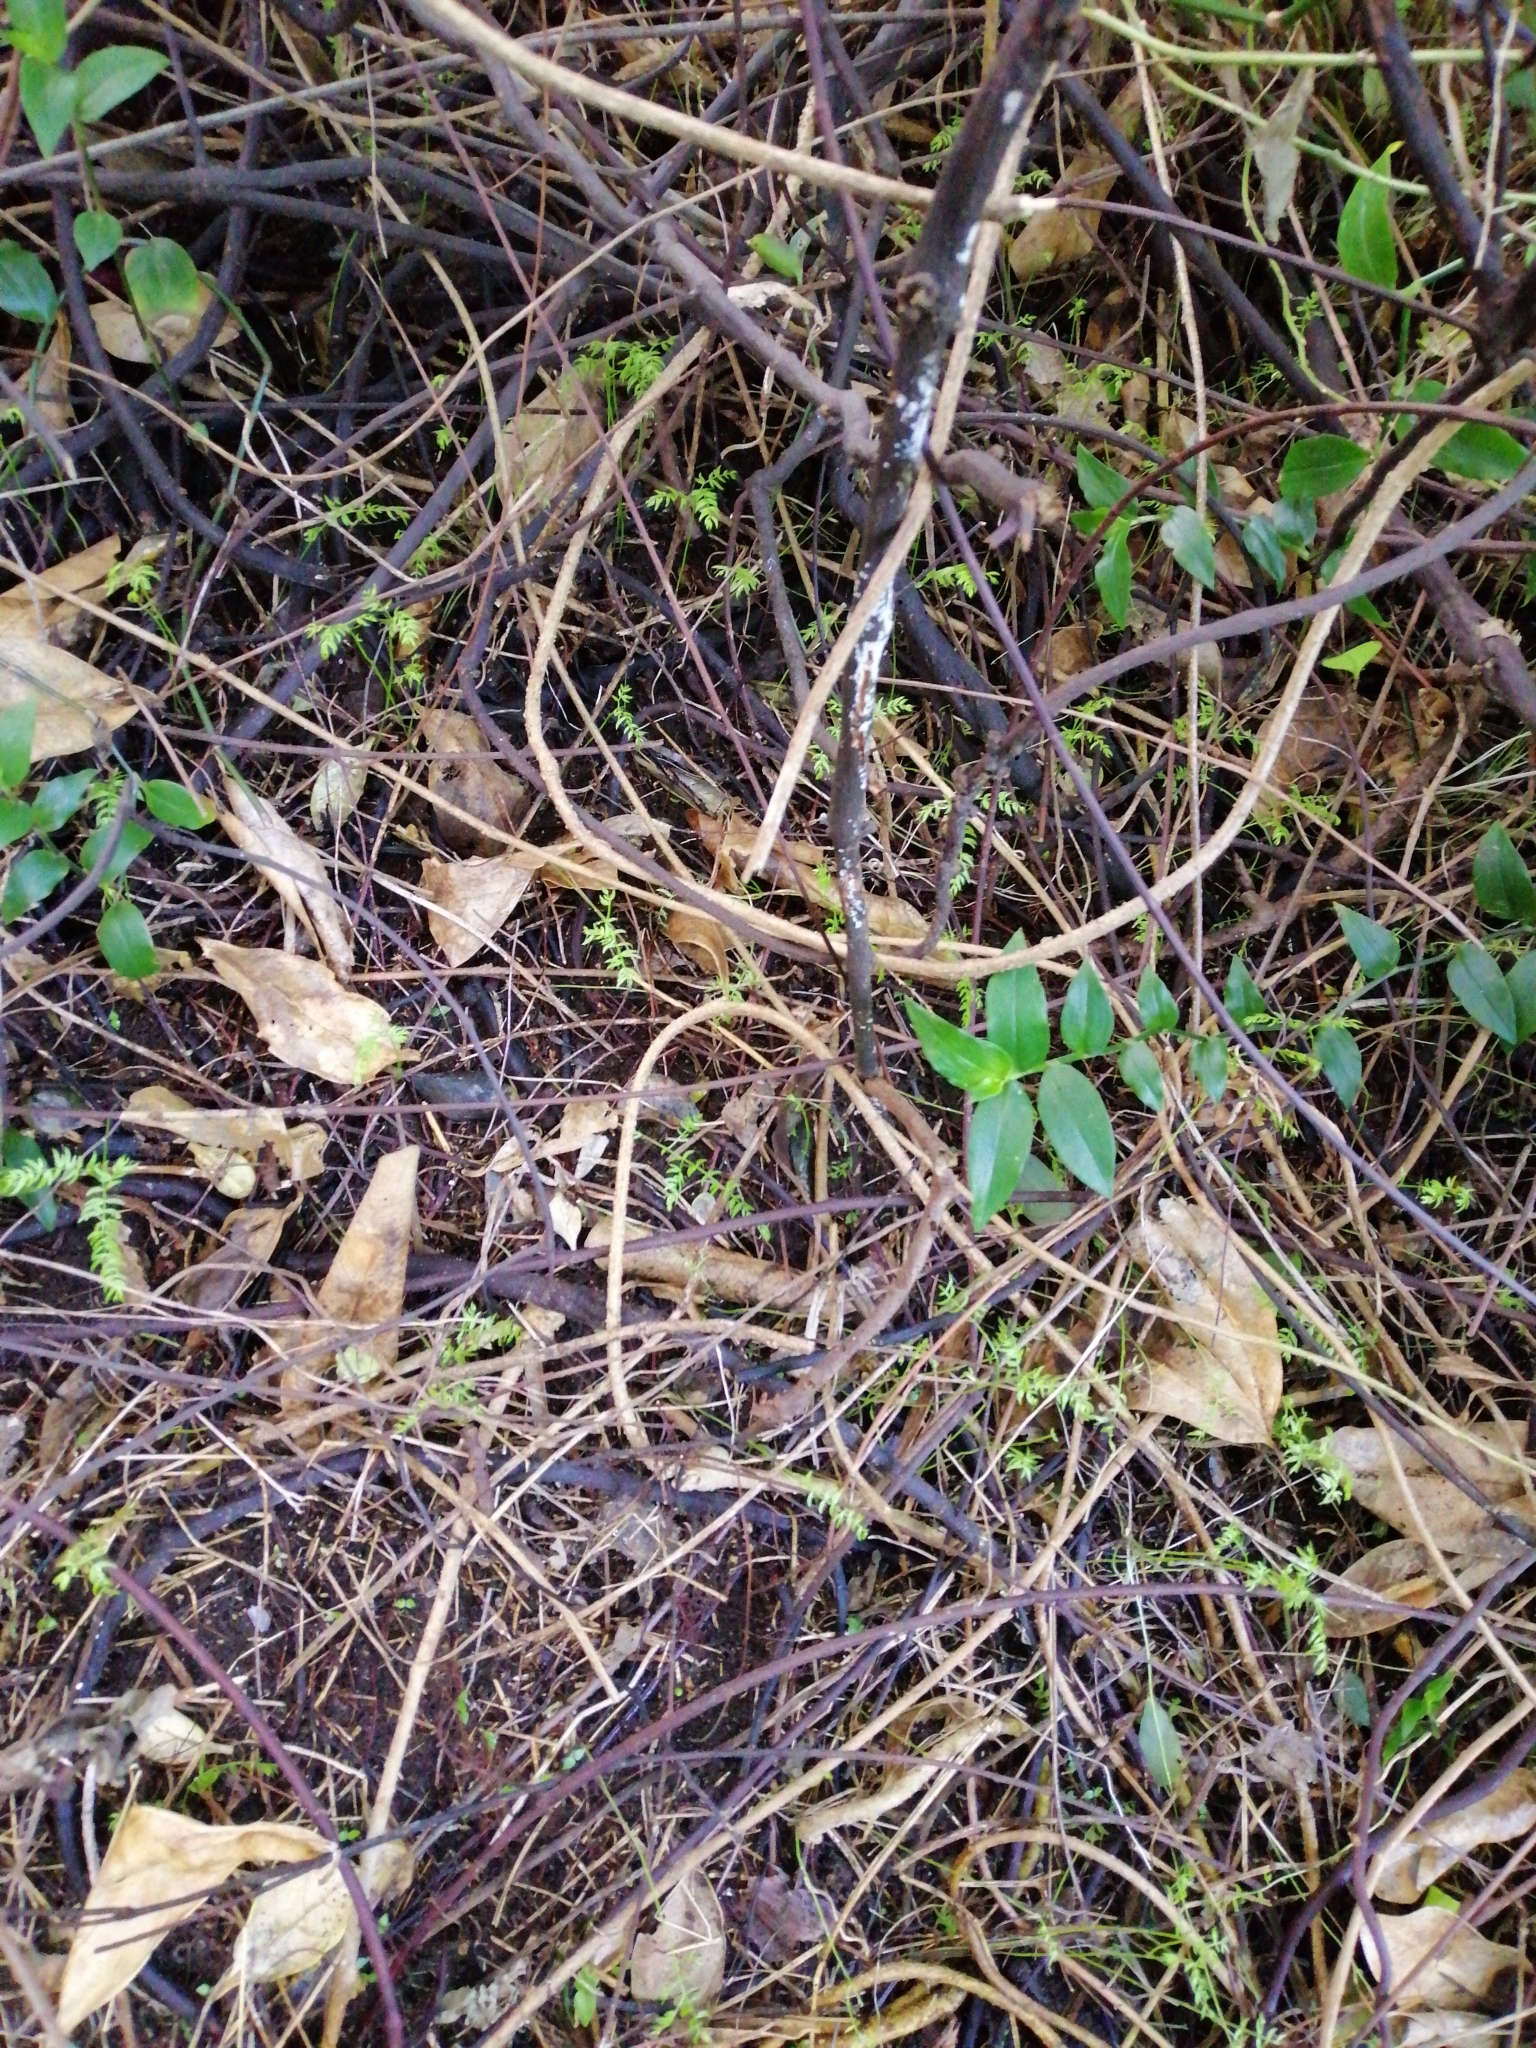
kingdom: Plantae
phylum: Tracheophyta
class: Liliopsida
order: Asparagales
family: Asparagaceae
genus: Asparagus
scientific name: Asparagus scandens
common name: Asparagus-fern
